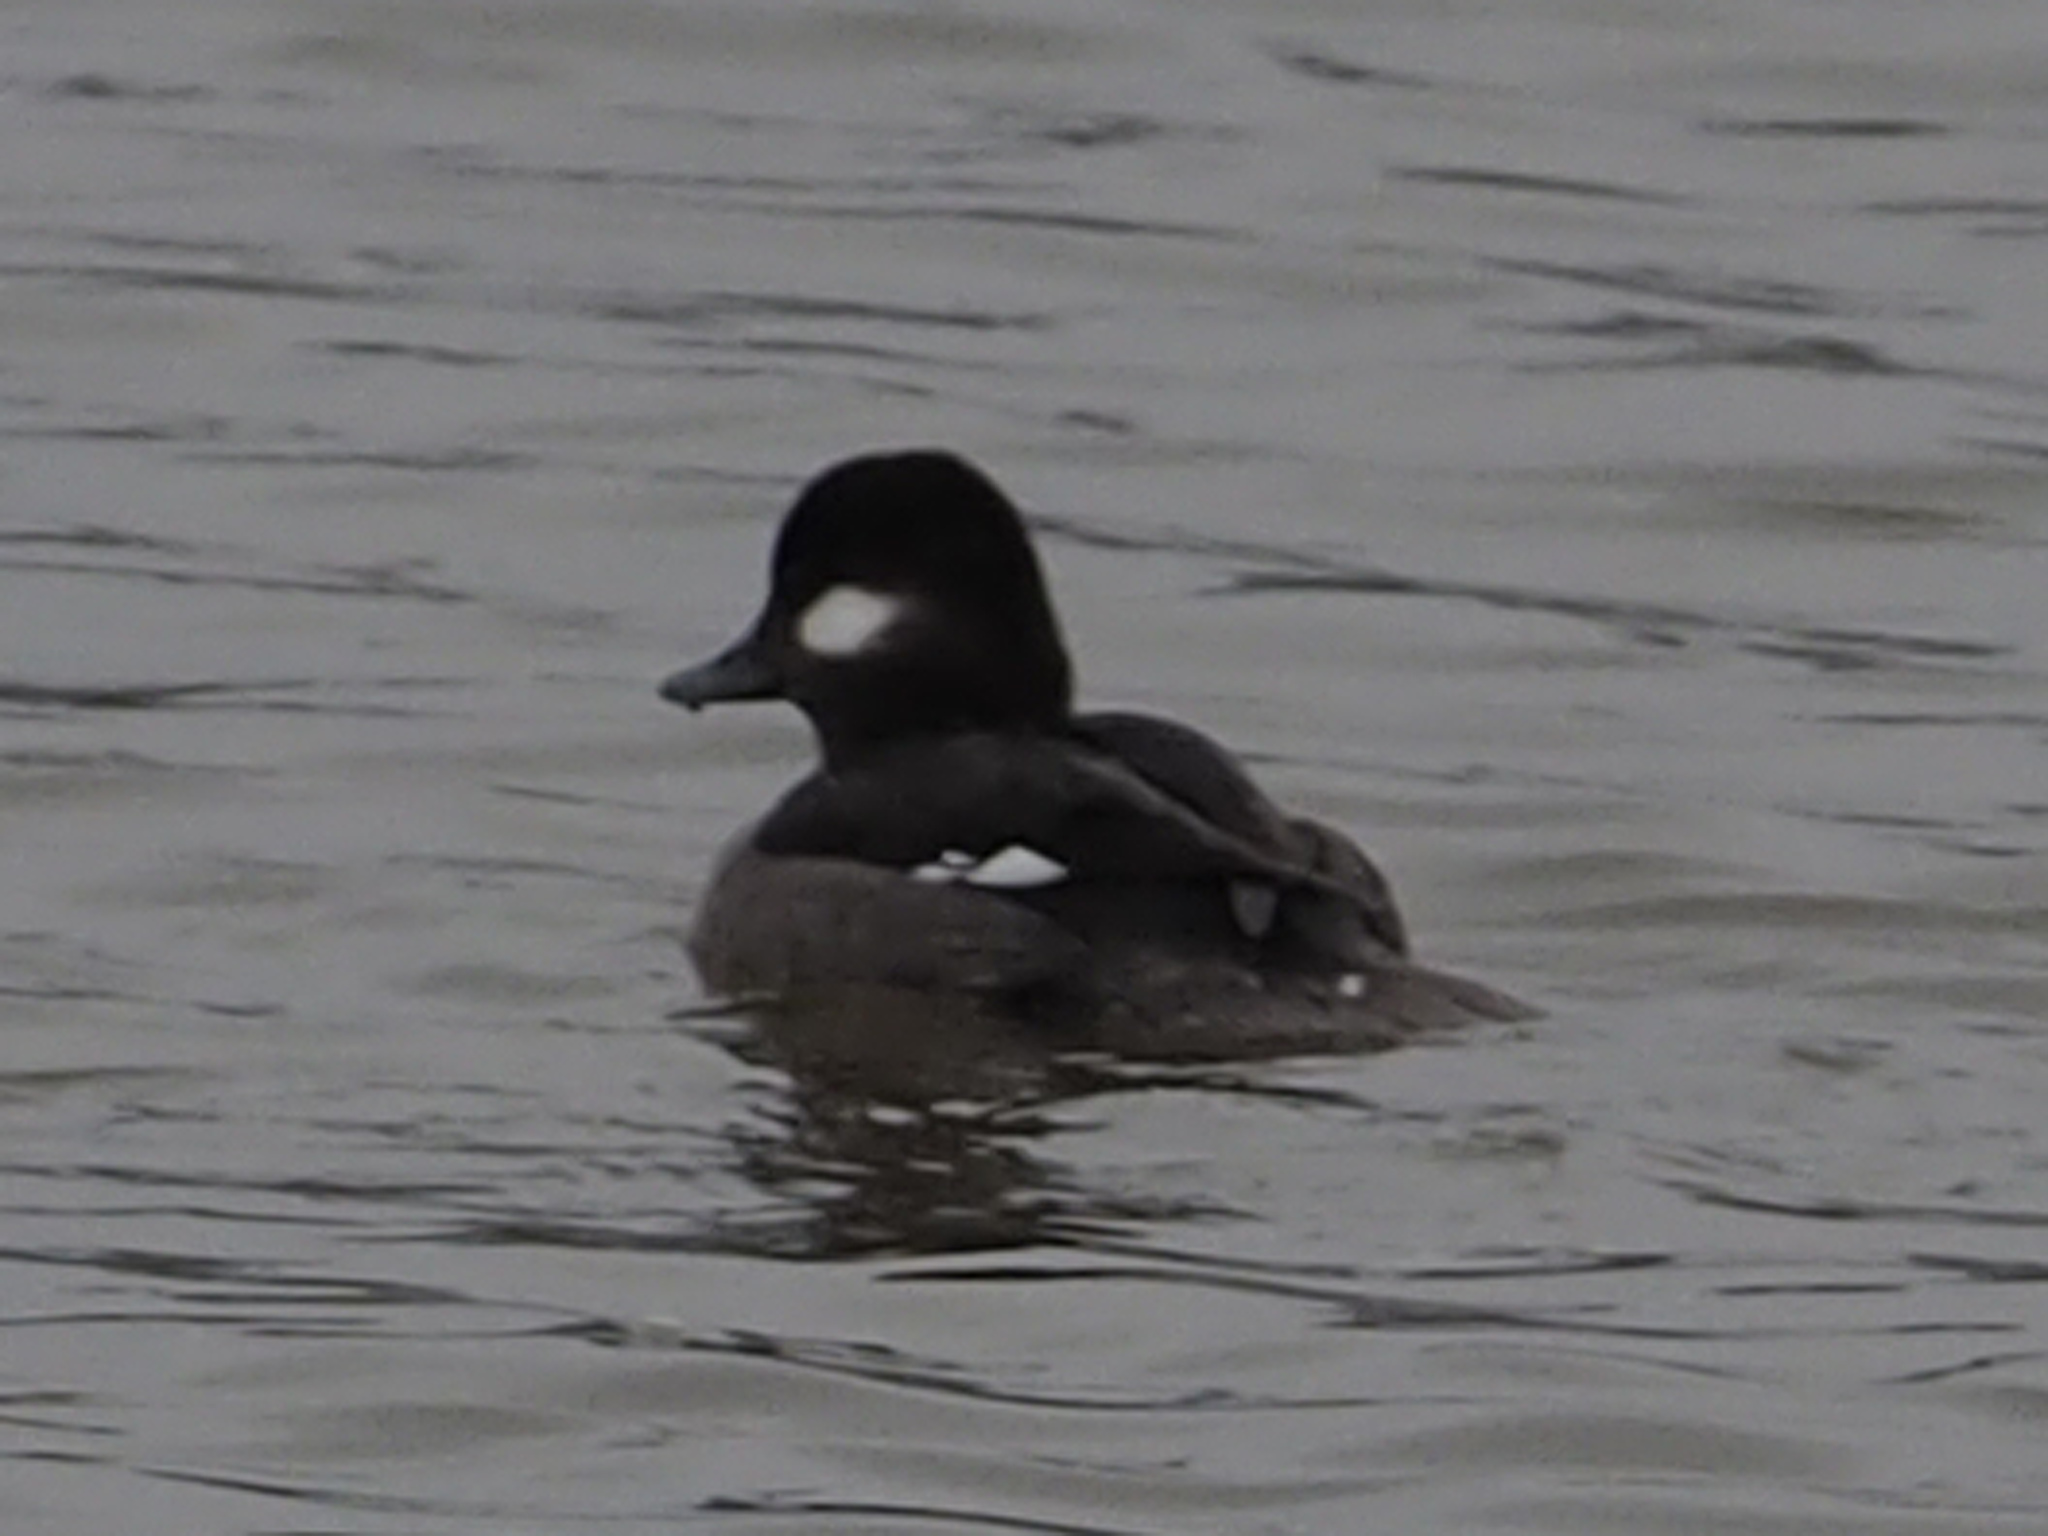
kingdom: Animalia
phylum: Chordata
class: Aves
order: Anseriformes
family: Anatidae
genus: Bucephala
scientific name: Bucephala albeola
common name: Bufflehead
